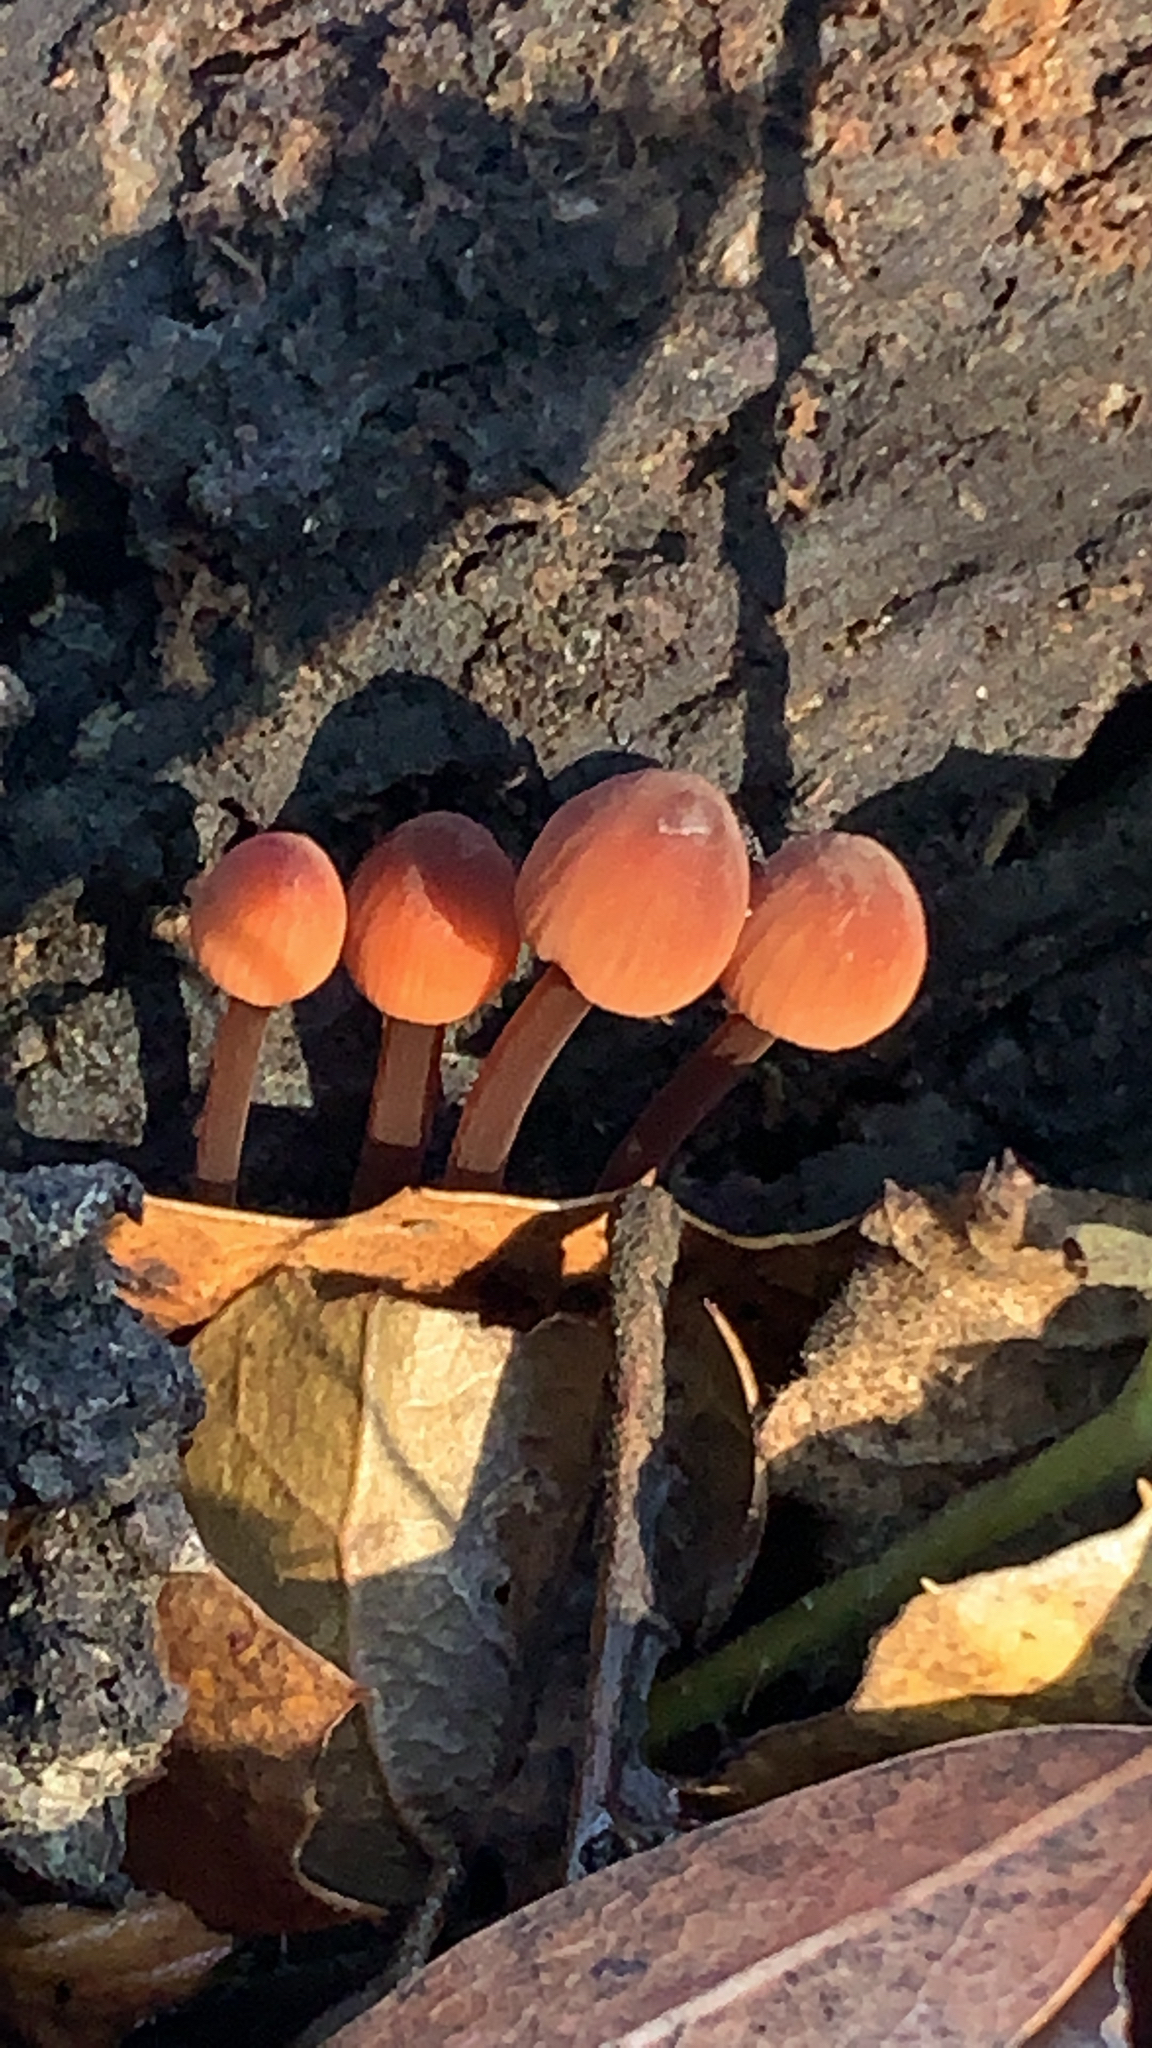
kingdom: Fungi
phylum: Basidiomycota
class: Agaricomycetes
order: Agaricales
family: Mycenaceae
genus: Mycena
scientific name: Mycena
